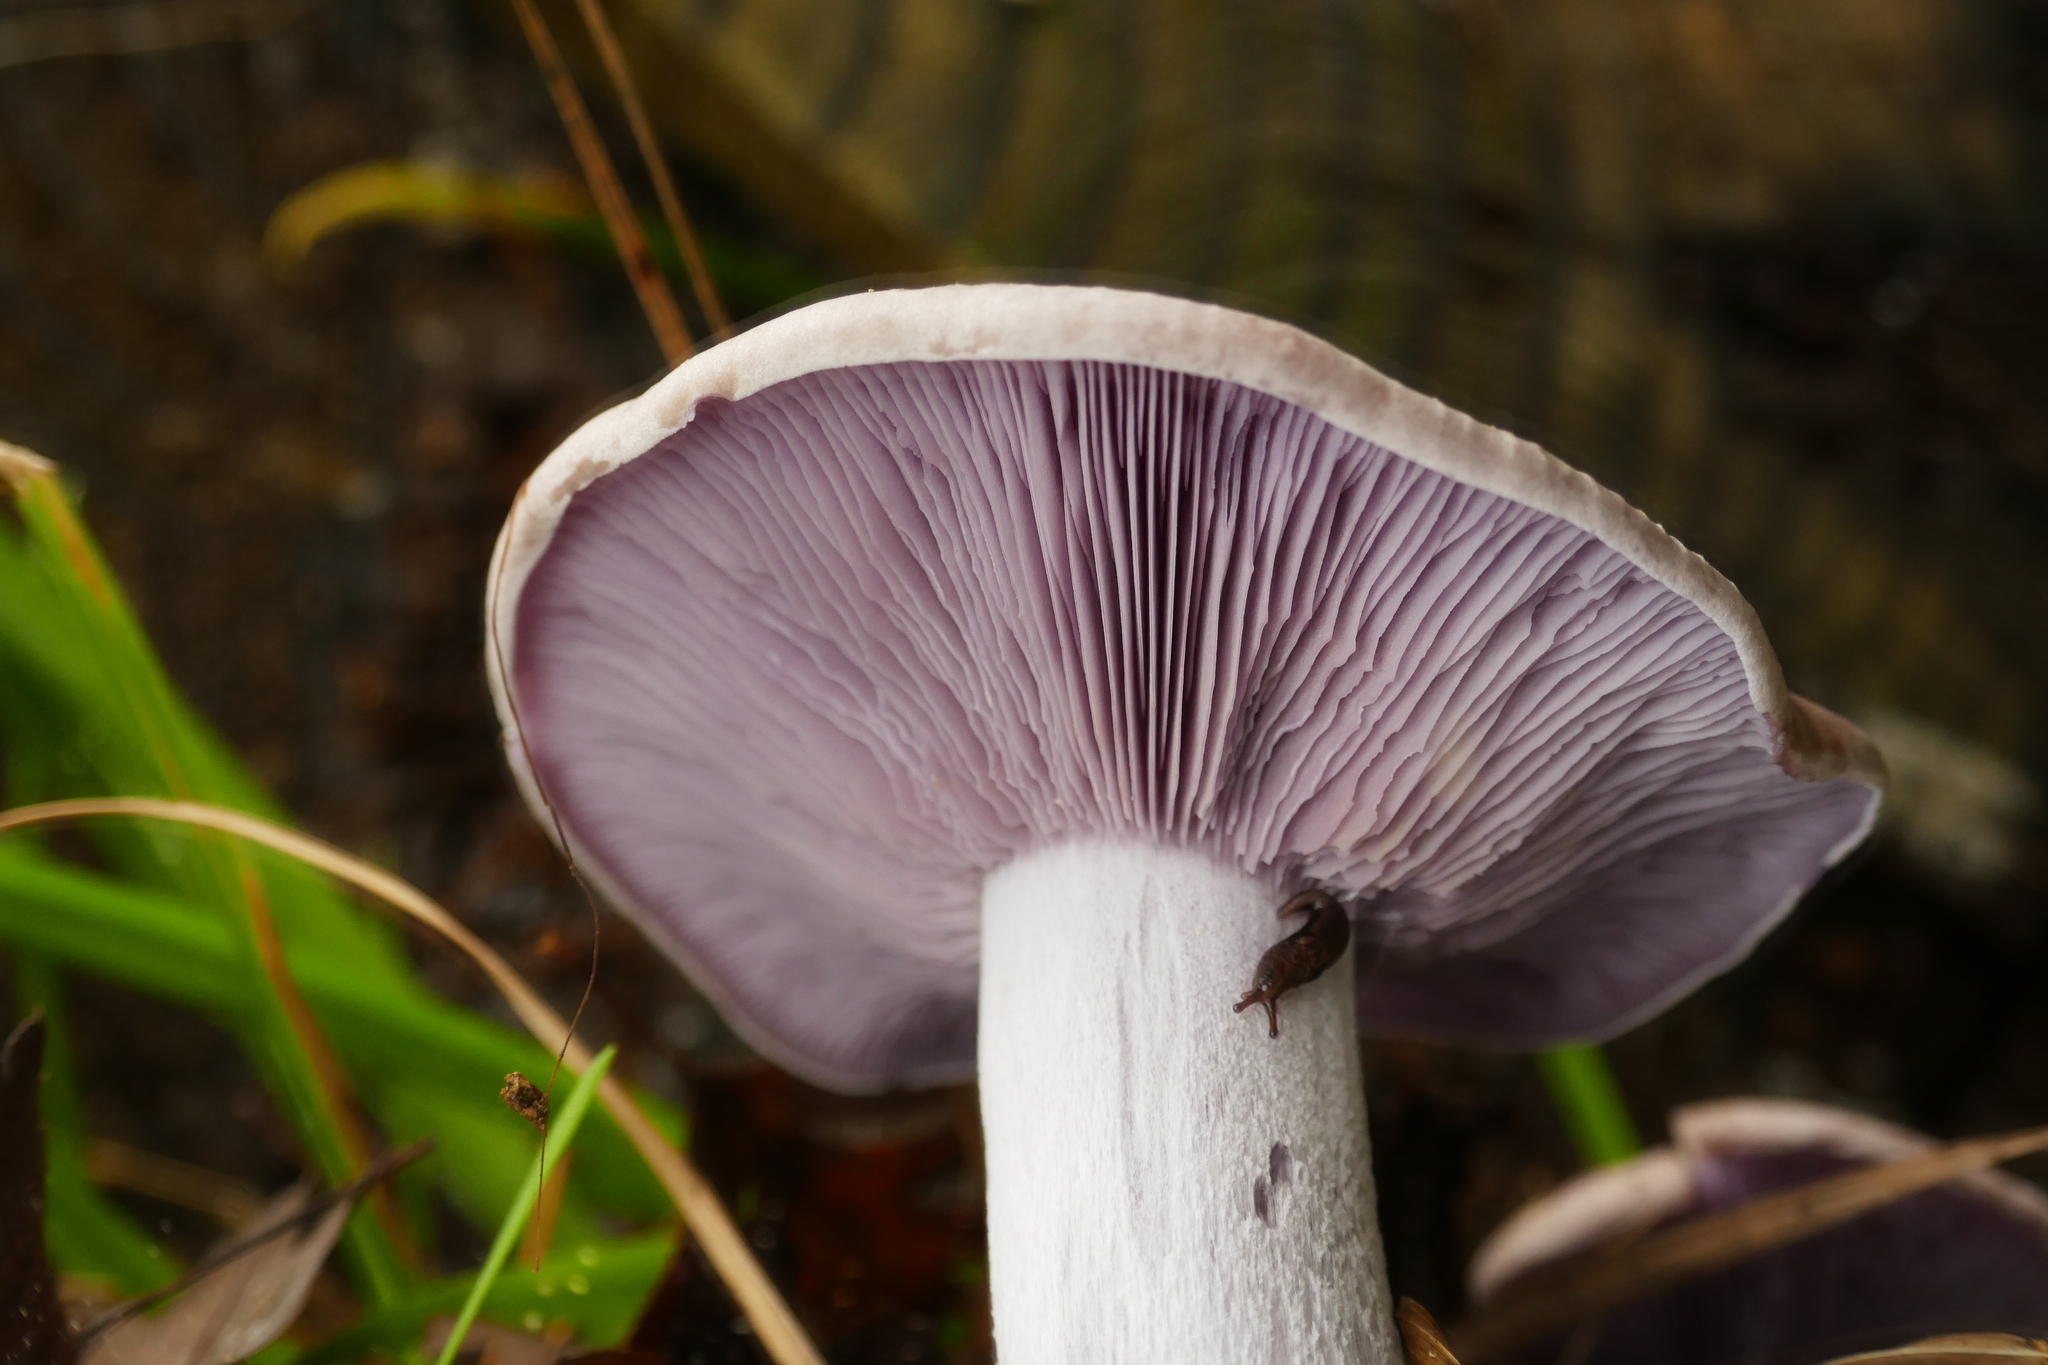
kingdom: Fungi
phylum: Basidiomycota
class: Agaricomycetes
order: Agaricales
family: Tricholomataceae
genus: Collybia
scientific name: Collybia
